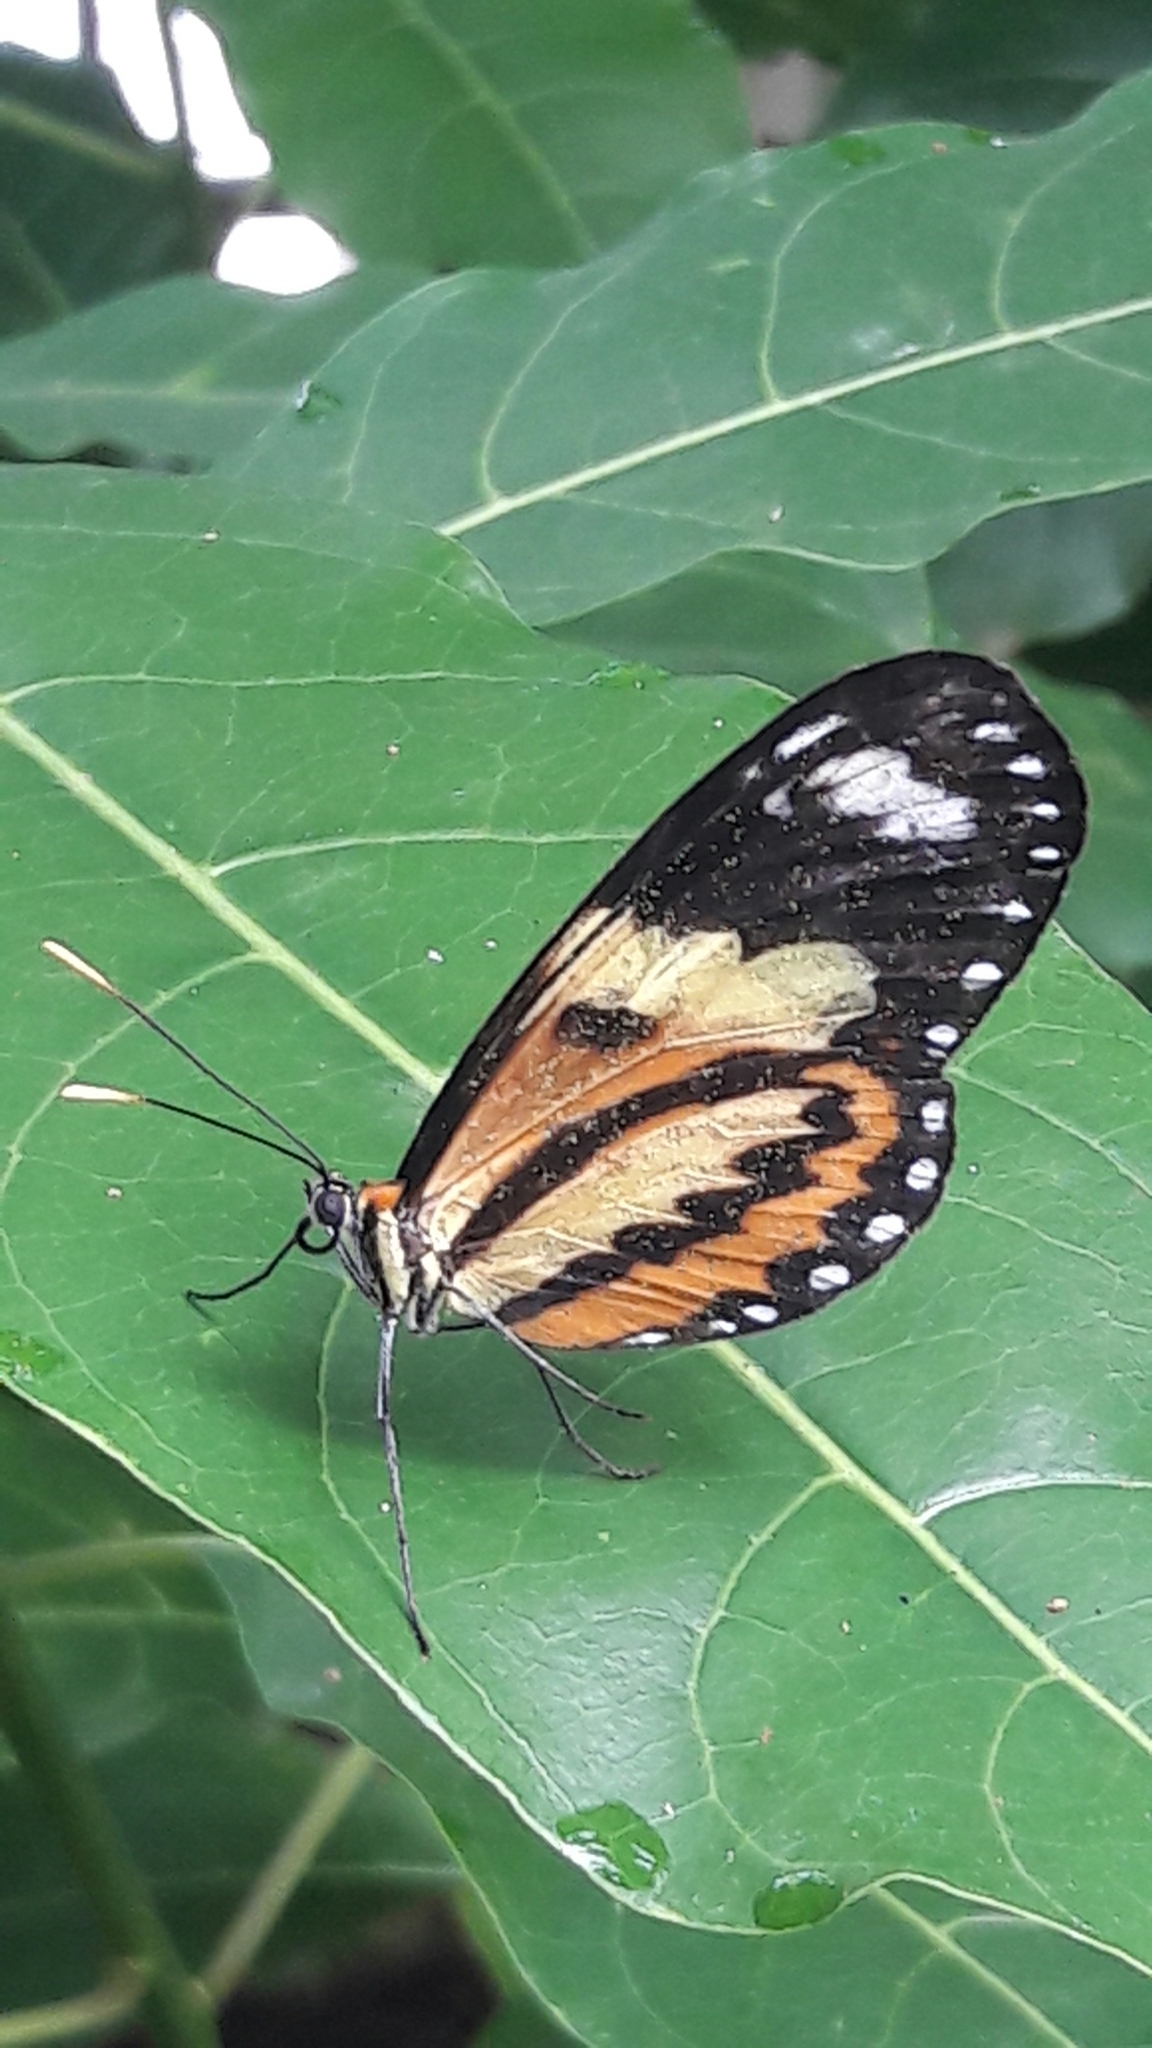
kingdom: Animalia
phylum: Arthropoda
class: Insecta
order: Lepidoptera
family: Nymphalidae
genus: Mechanitis
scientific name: Mechanitis lysimnia
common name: Lysimnia tigerwing
